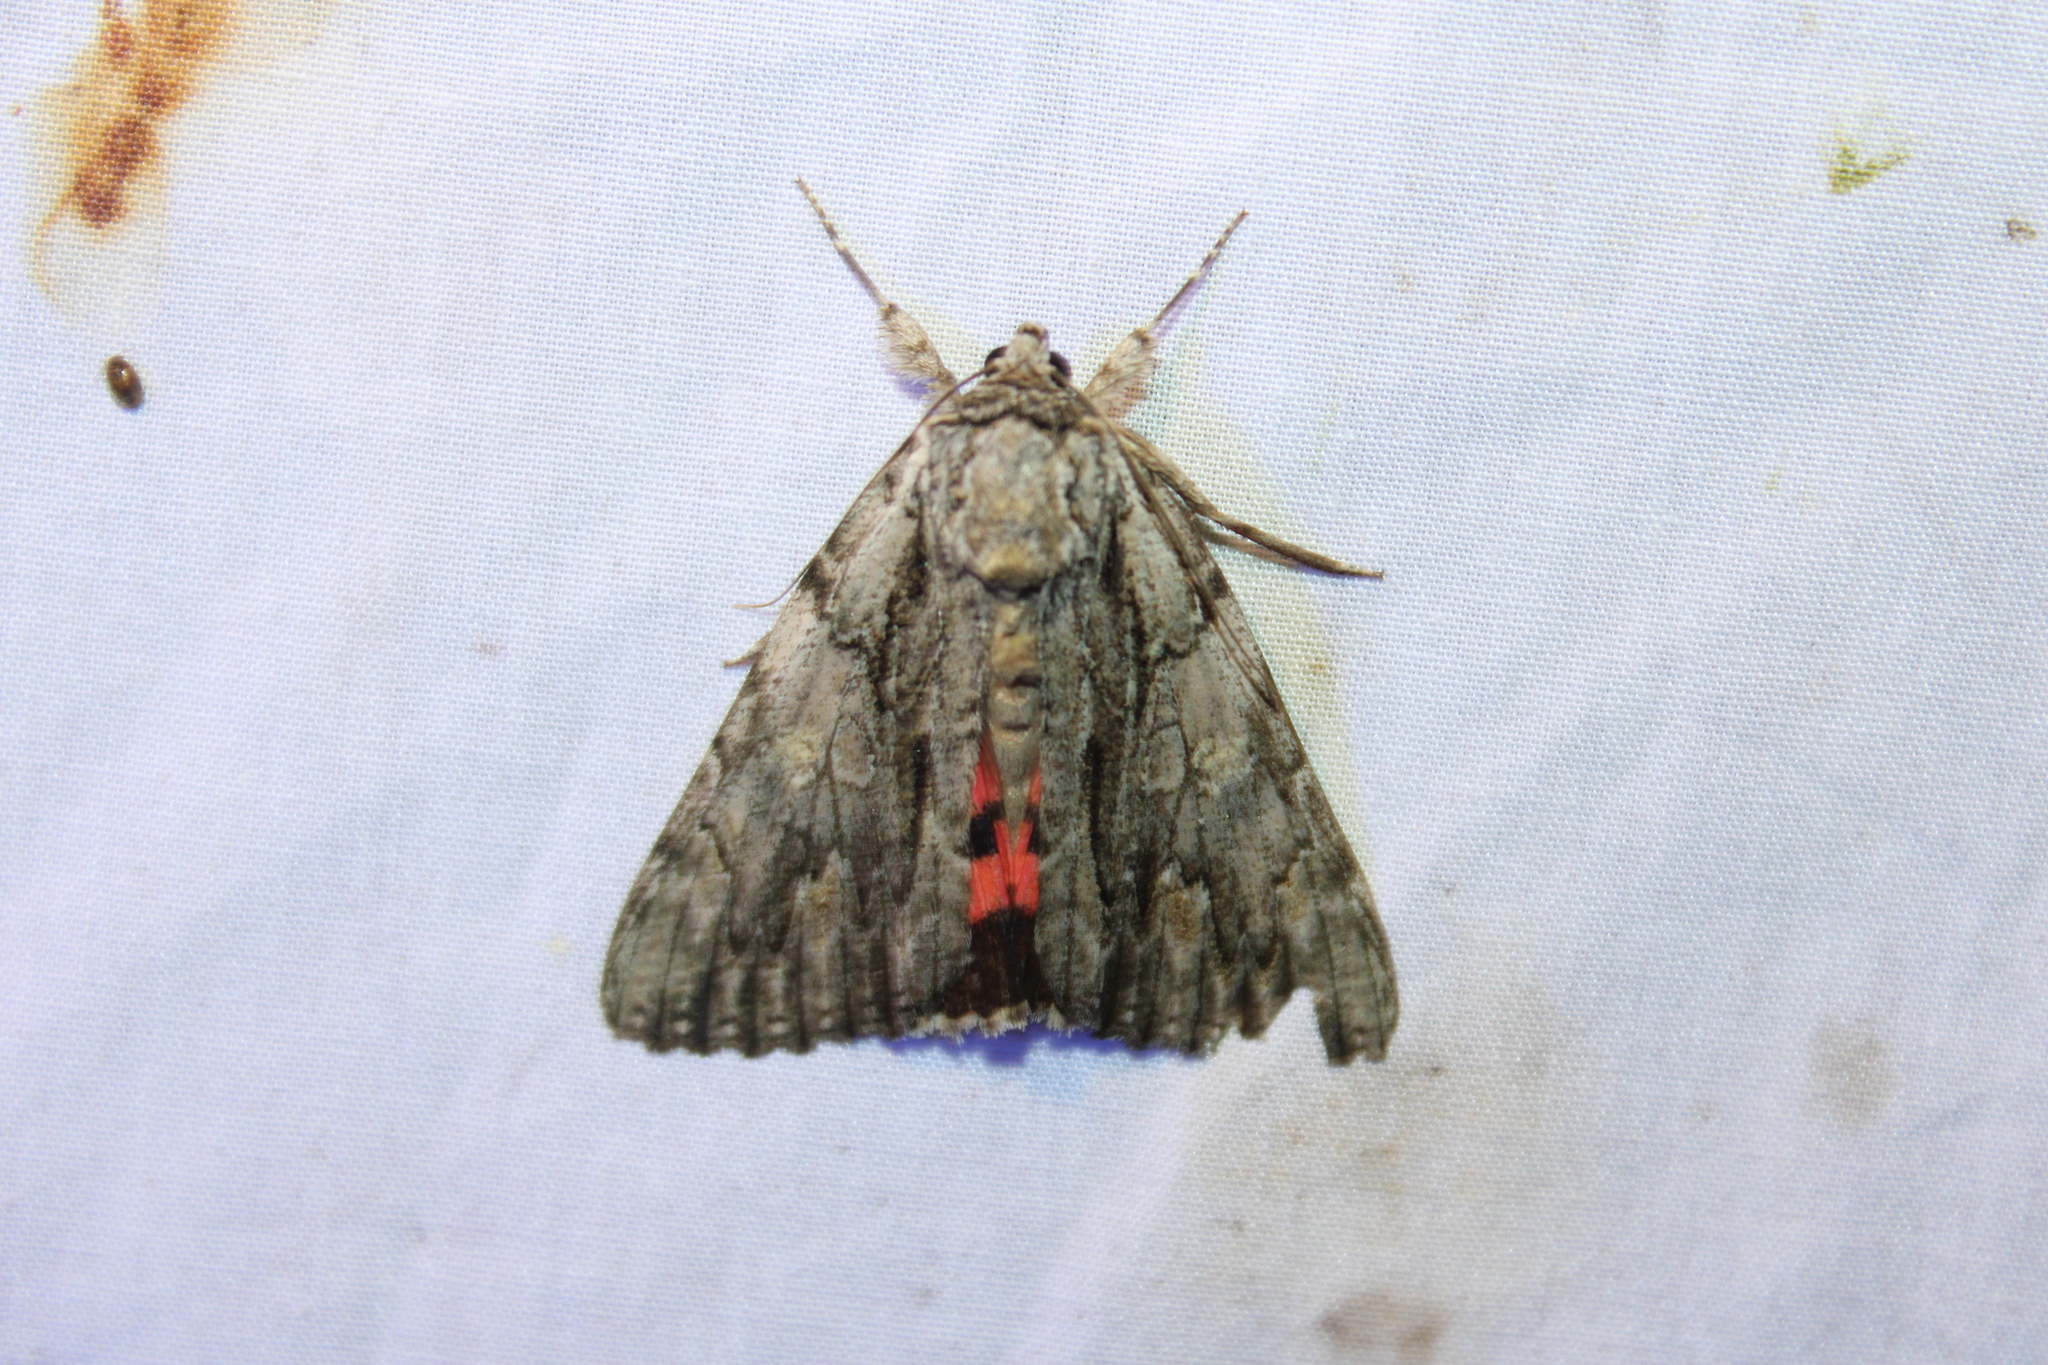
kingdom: Animalia
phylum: Arthropoda
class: Insecta
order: Lepidoptera
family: Erebidae
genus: Catocala
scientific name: Catocala coccinata
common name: Scarlet underwing
